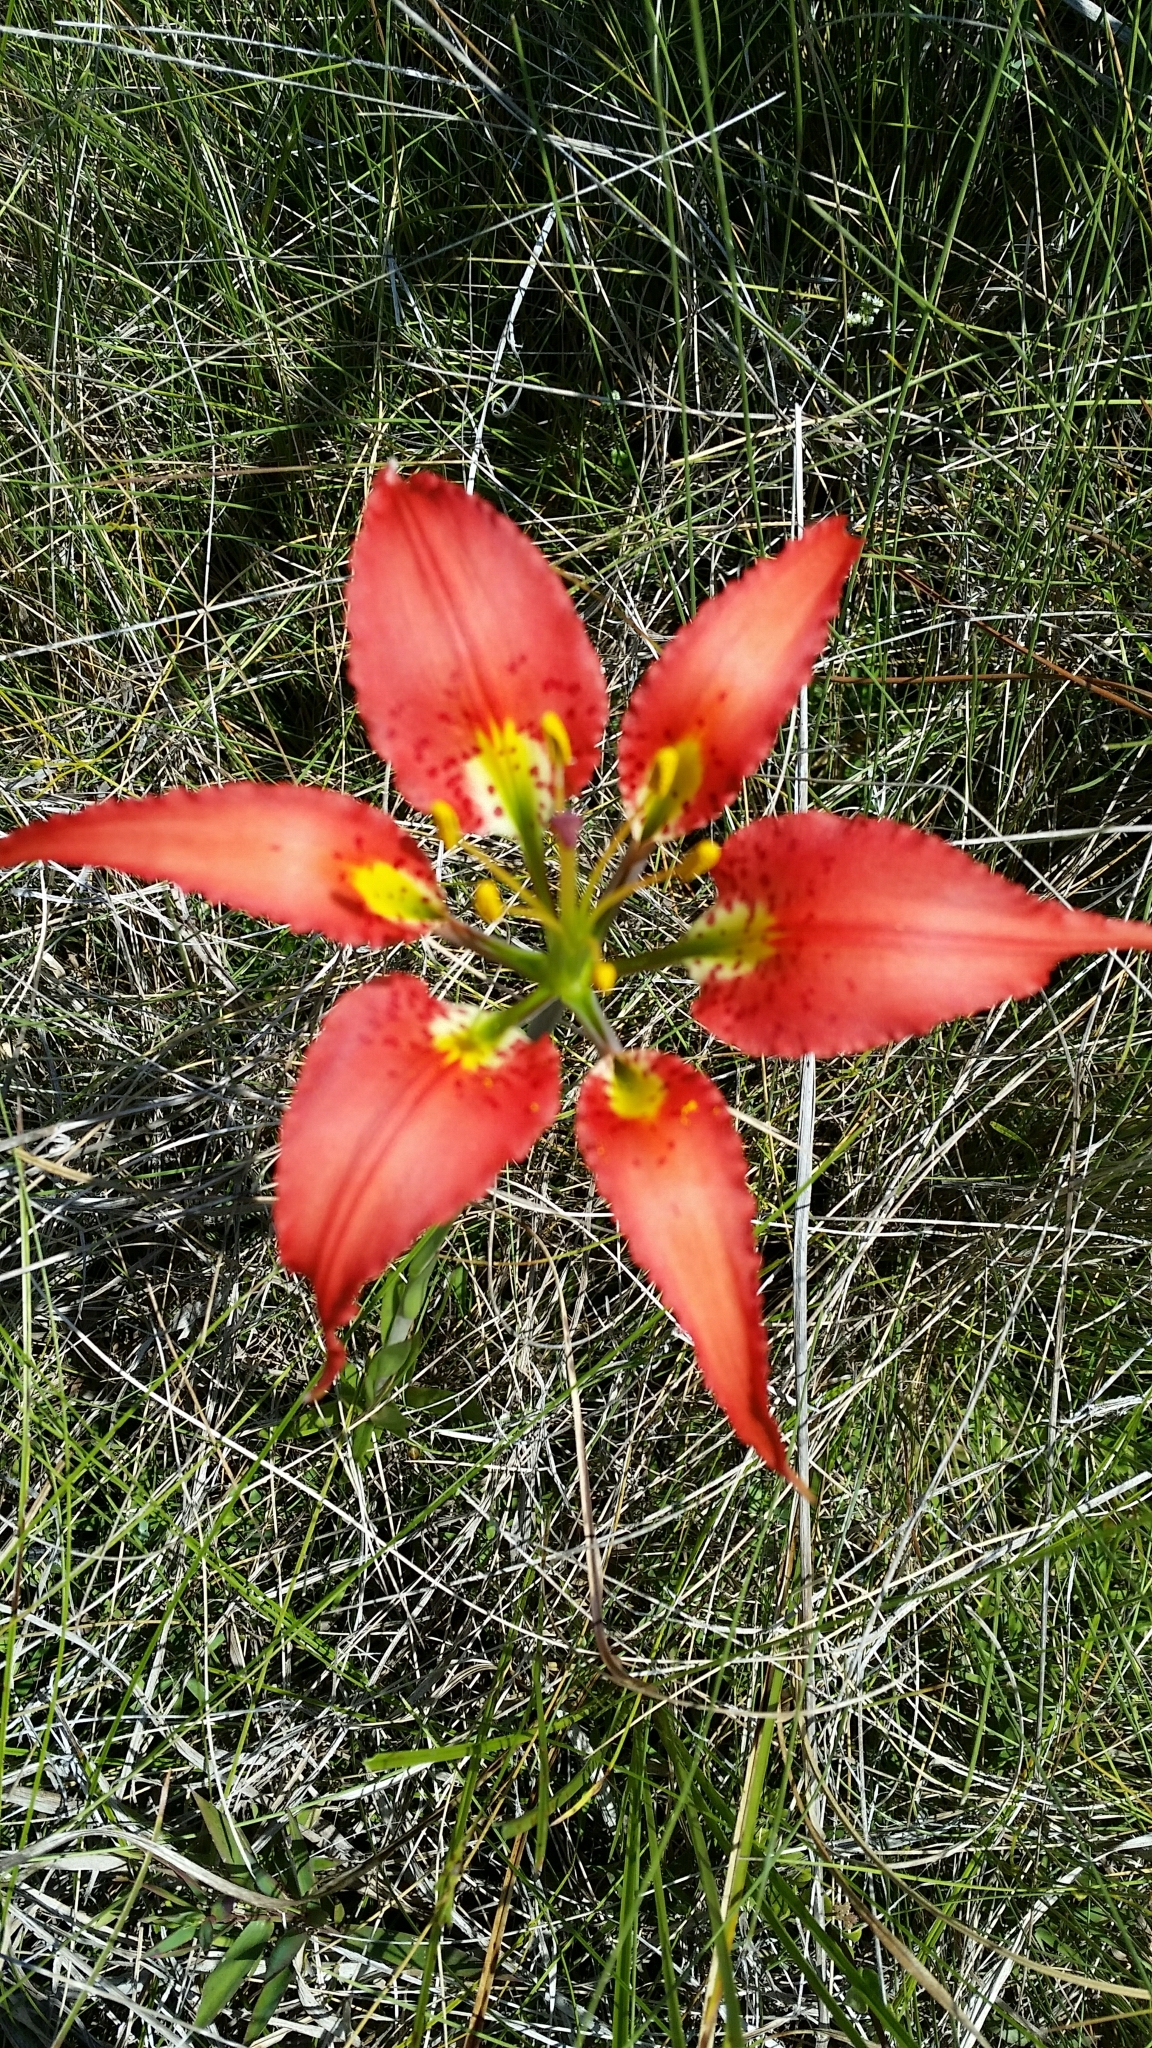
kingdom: Plantae
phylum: Tracheophyta
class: Liliopsida
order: Liliales
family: Liliaceae
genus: Lilium
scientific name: Lilium catesbaei
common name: Catesby's lily
